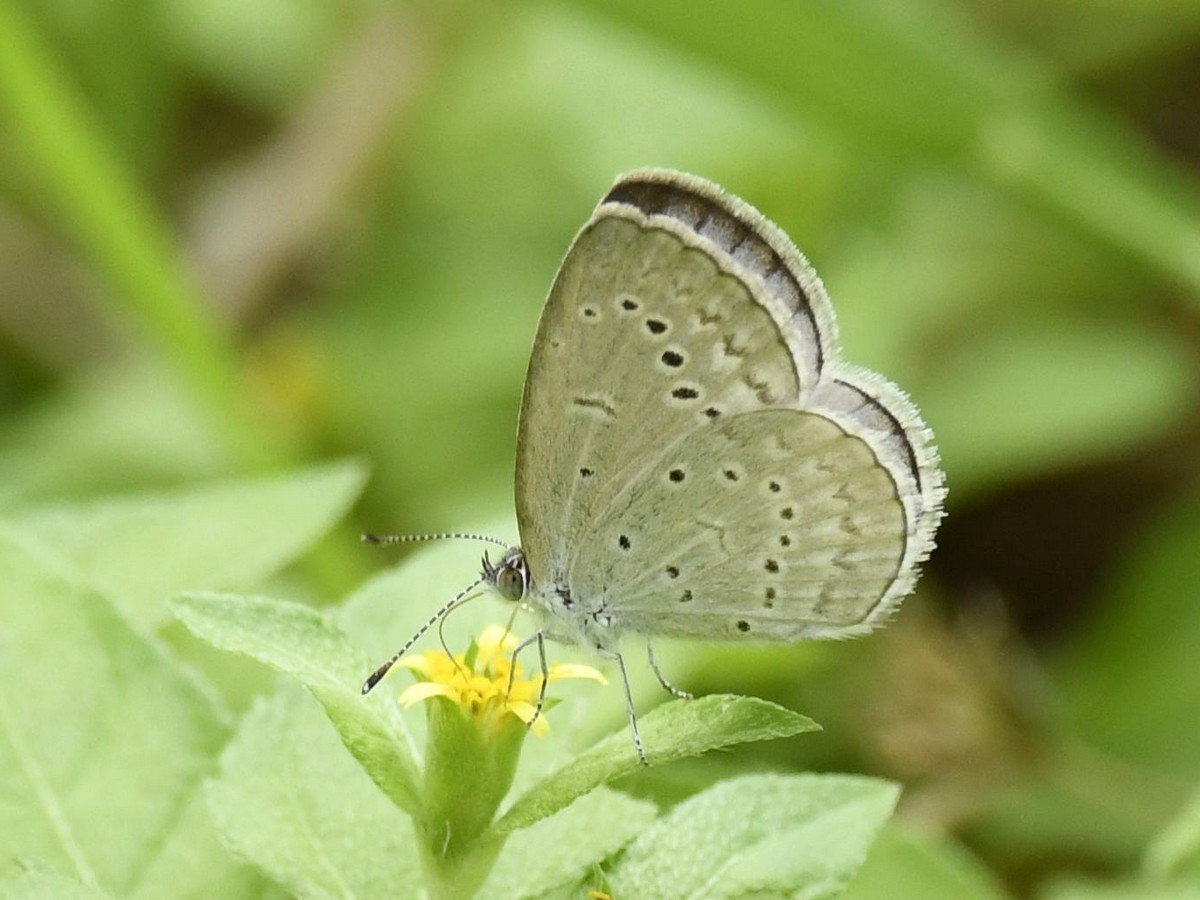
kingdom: Animalia
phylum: Arthropoda
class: Insecta
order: Lepidoptera
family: Lycaenidae
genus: Pseudozizeeria
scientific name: Pseudozizeeria maha
